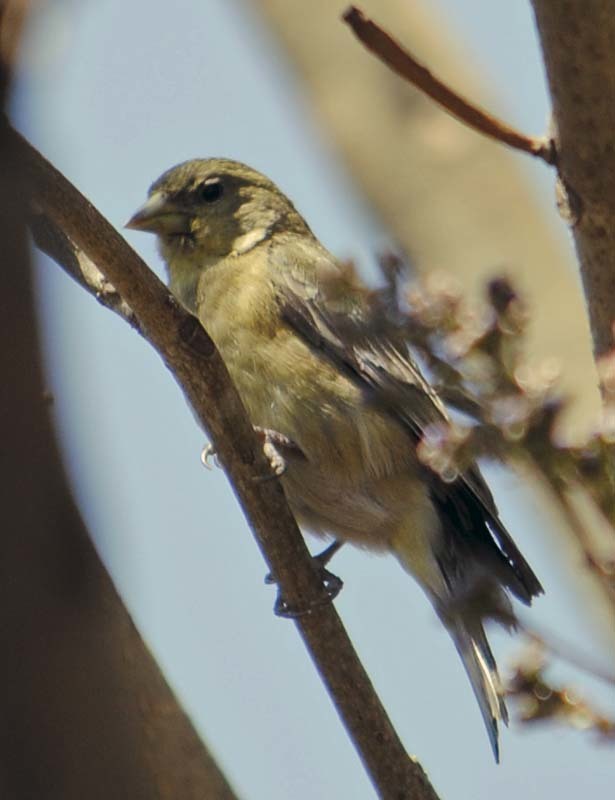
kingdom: Animalia
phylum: Chordata
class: Aves
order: Passeriformes
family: Fringillidae
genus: Spinus
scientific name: Spinus psaltria
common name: Lesser goldfinch
